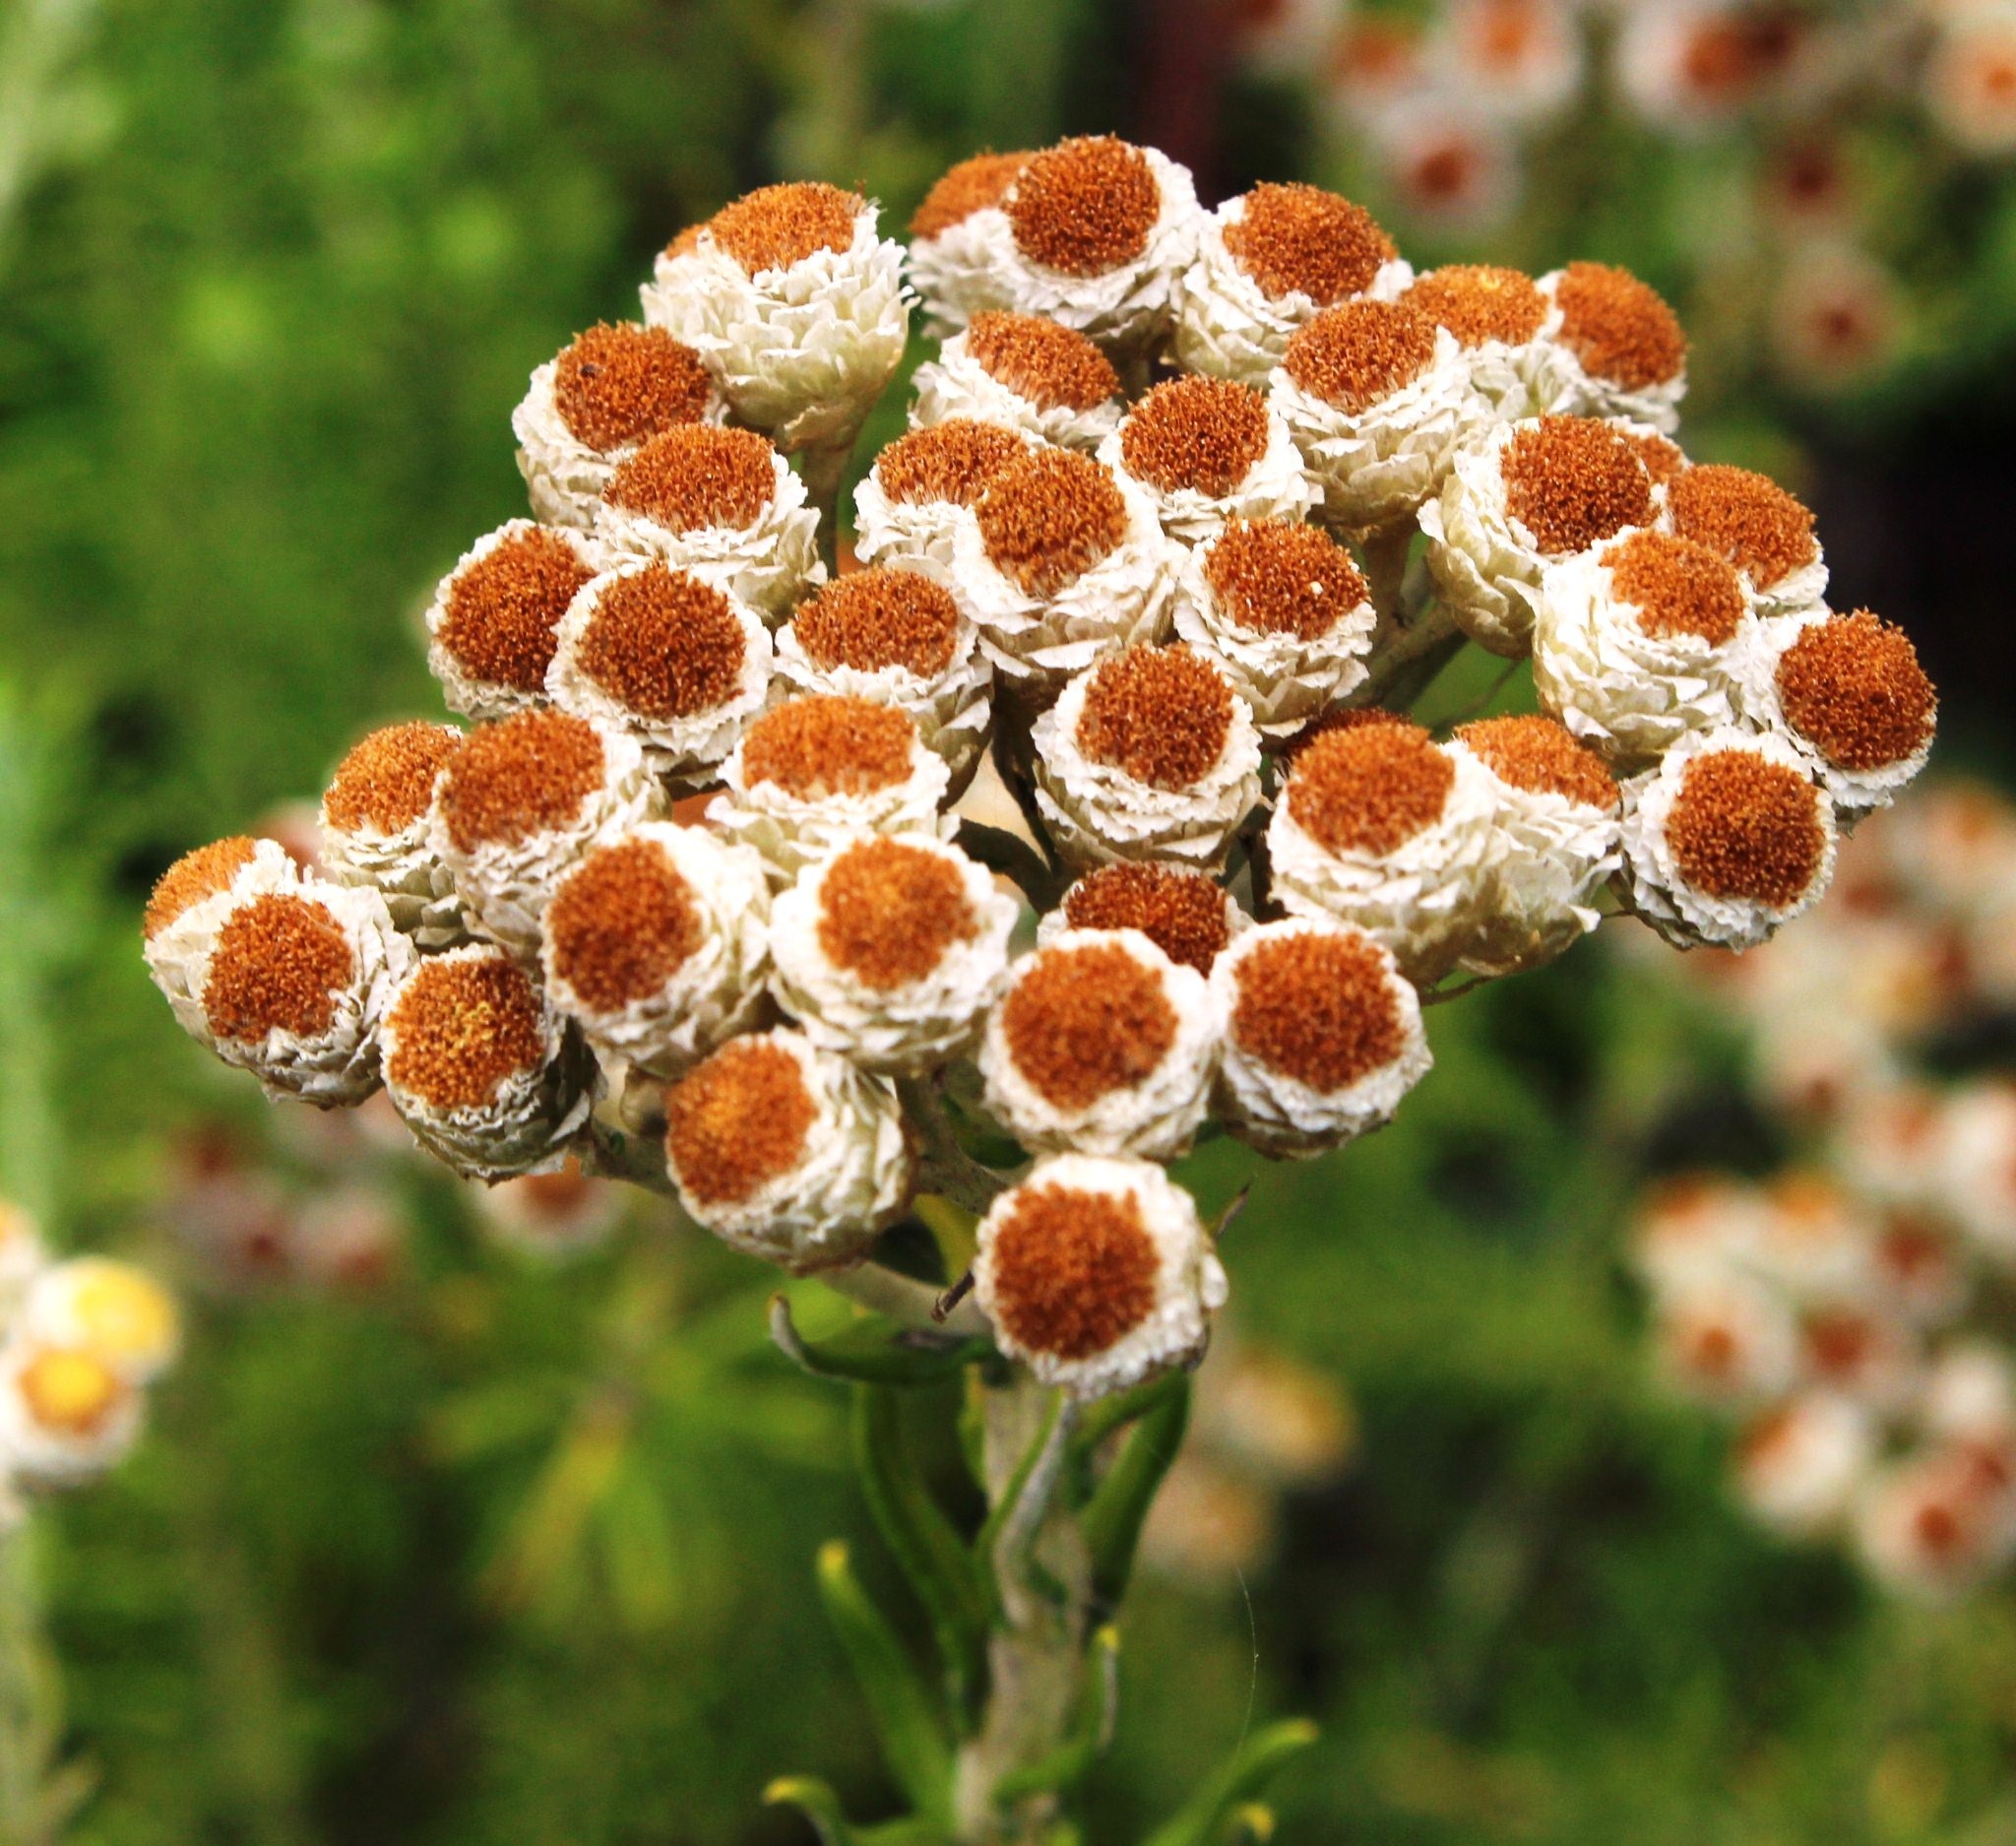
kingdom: Plantae
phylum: Tracheophyta
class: Magnoliopsida
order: Asterales
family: Asteraceae
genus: Helichrysum
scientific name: Helichrysum teretifolium
